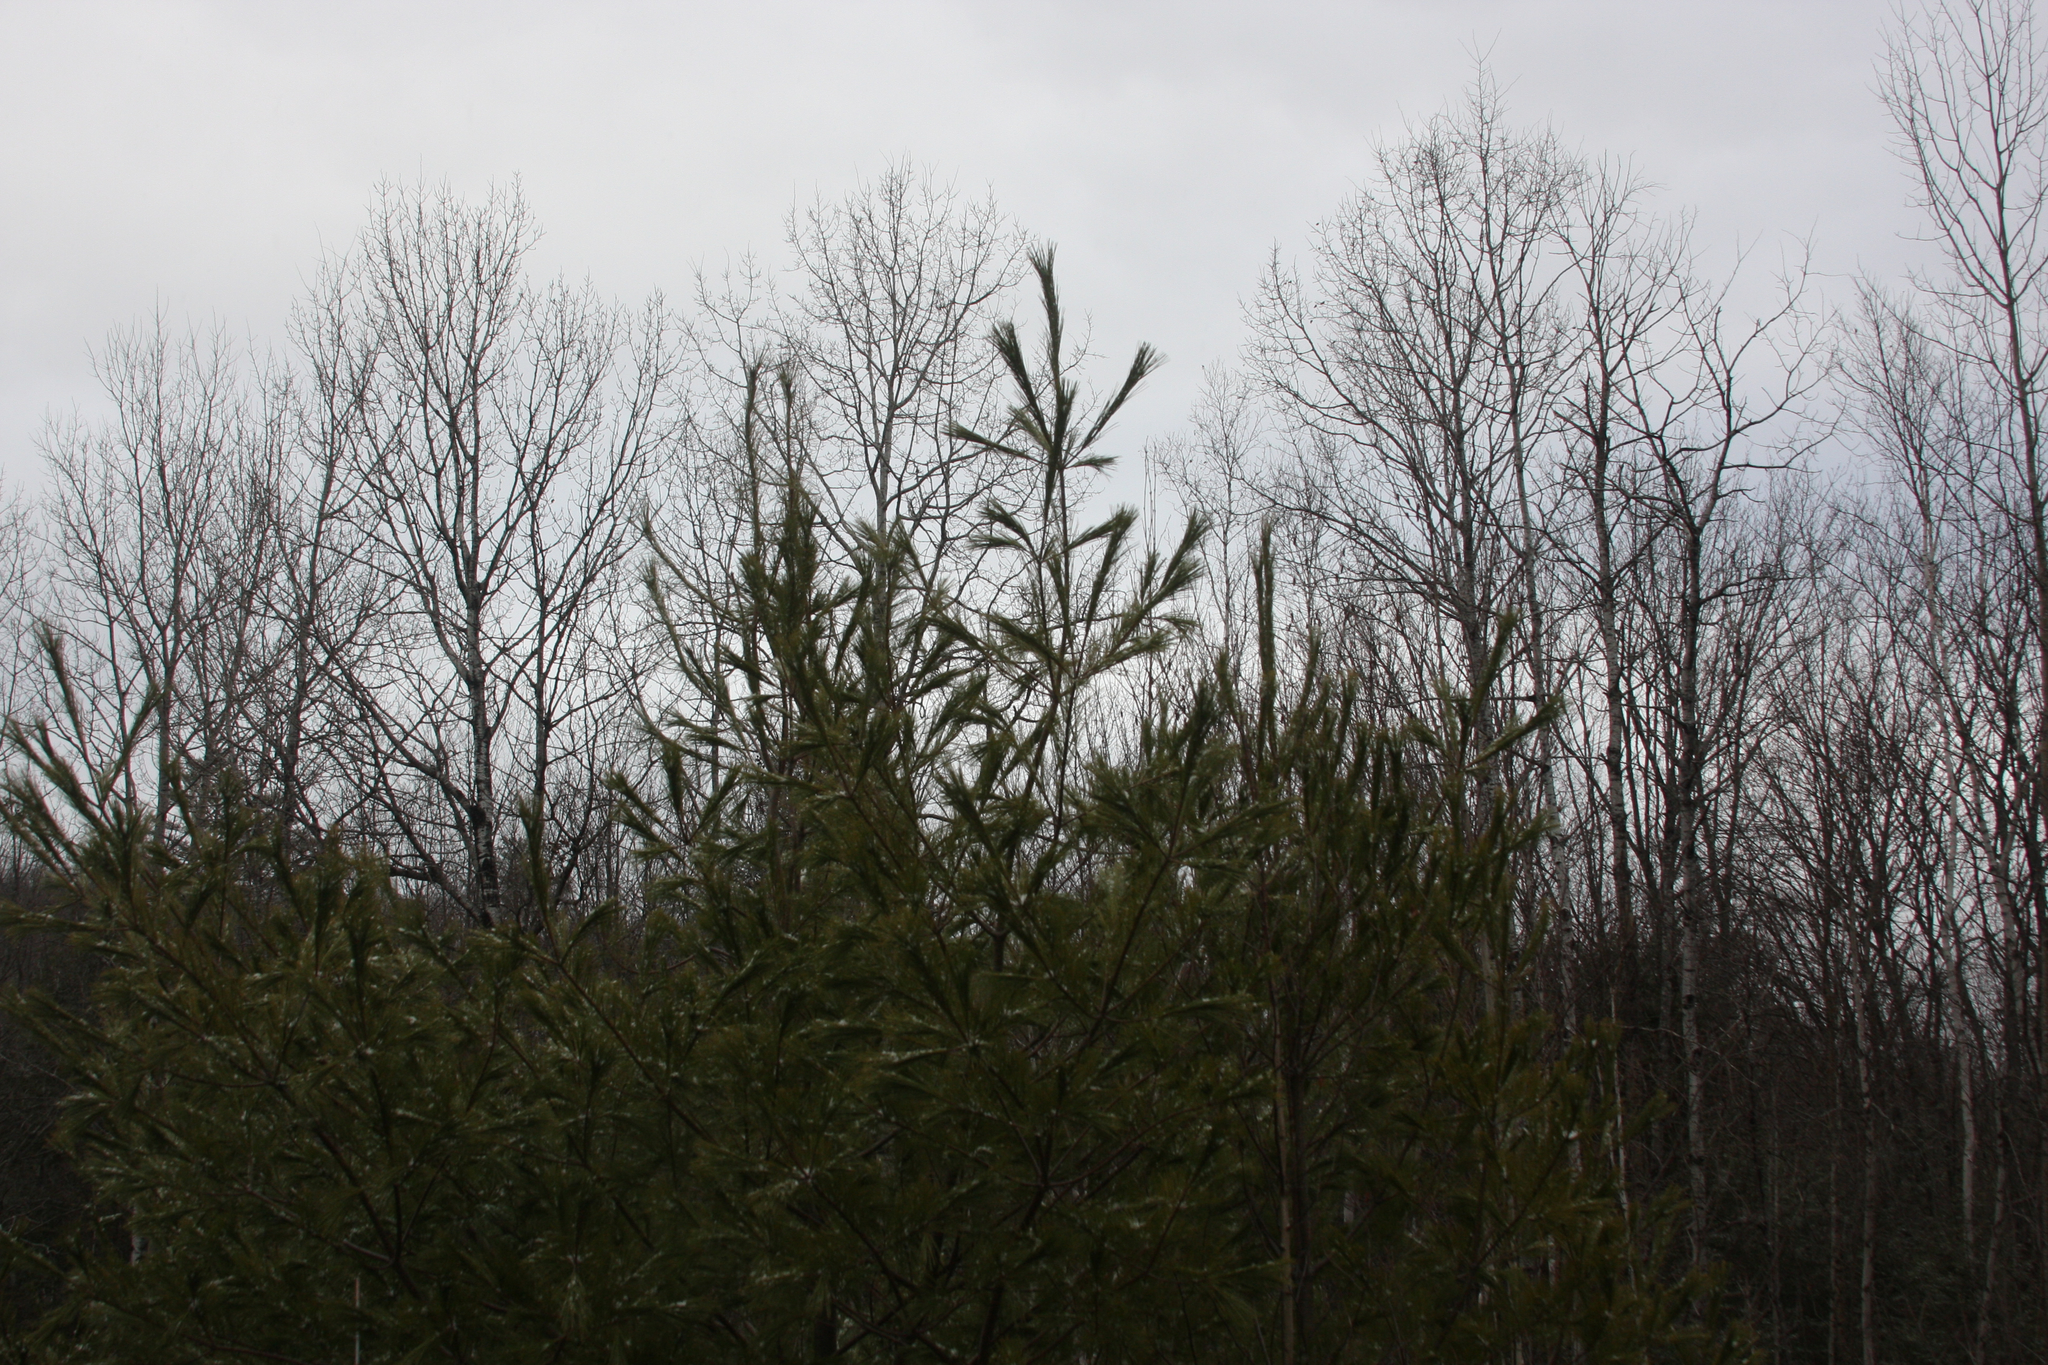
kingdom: Plantae
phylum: Tracheophyta
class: Pinopsida
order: Pinales
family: Pinaceae
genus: Pinus
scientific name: Pinus strobus
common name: Weymouth pine
